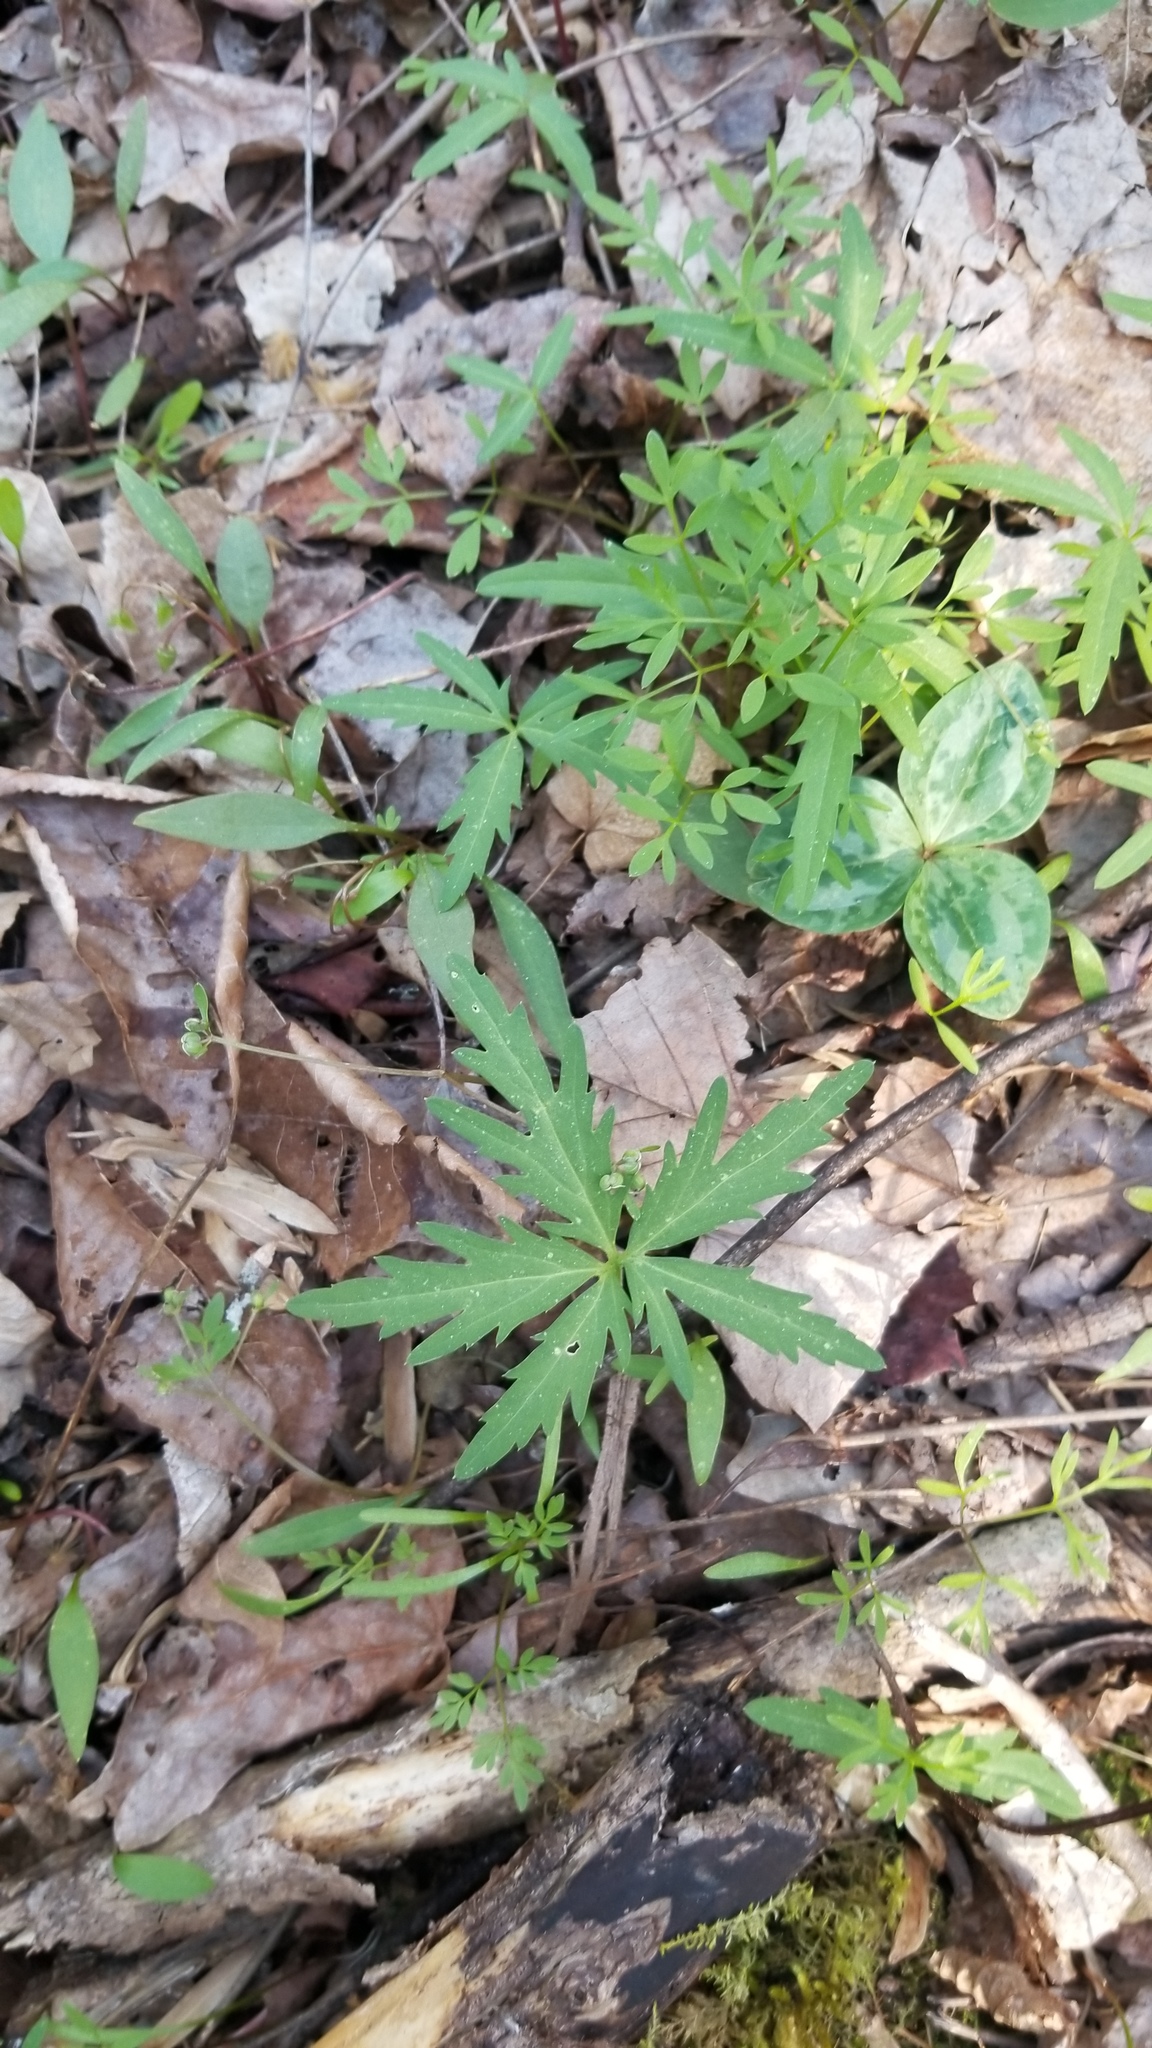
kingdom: Plantae
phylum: Tracheophyta
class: Magnoliopsida
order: Brassicales
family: Brassicaceae
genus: Cardamine
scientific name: Cardamine concatenata
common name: Cut-leaf toothcup
